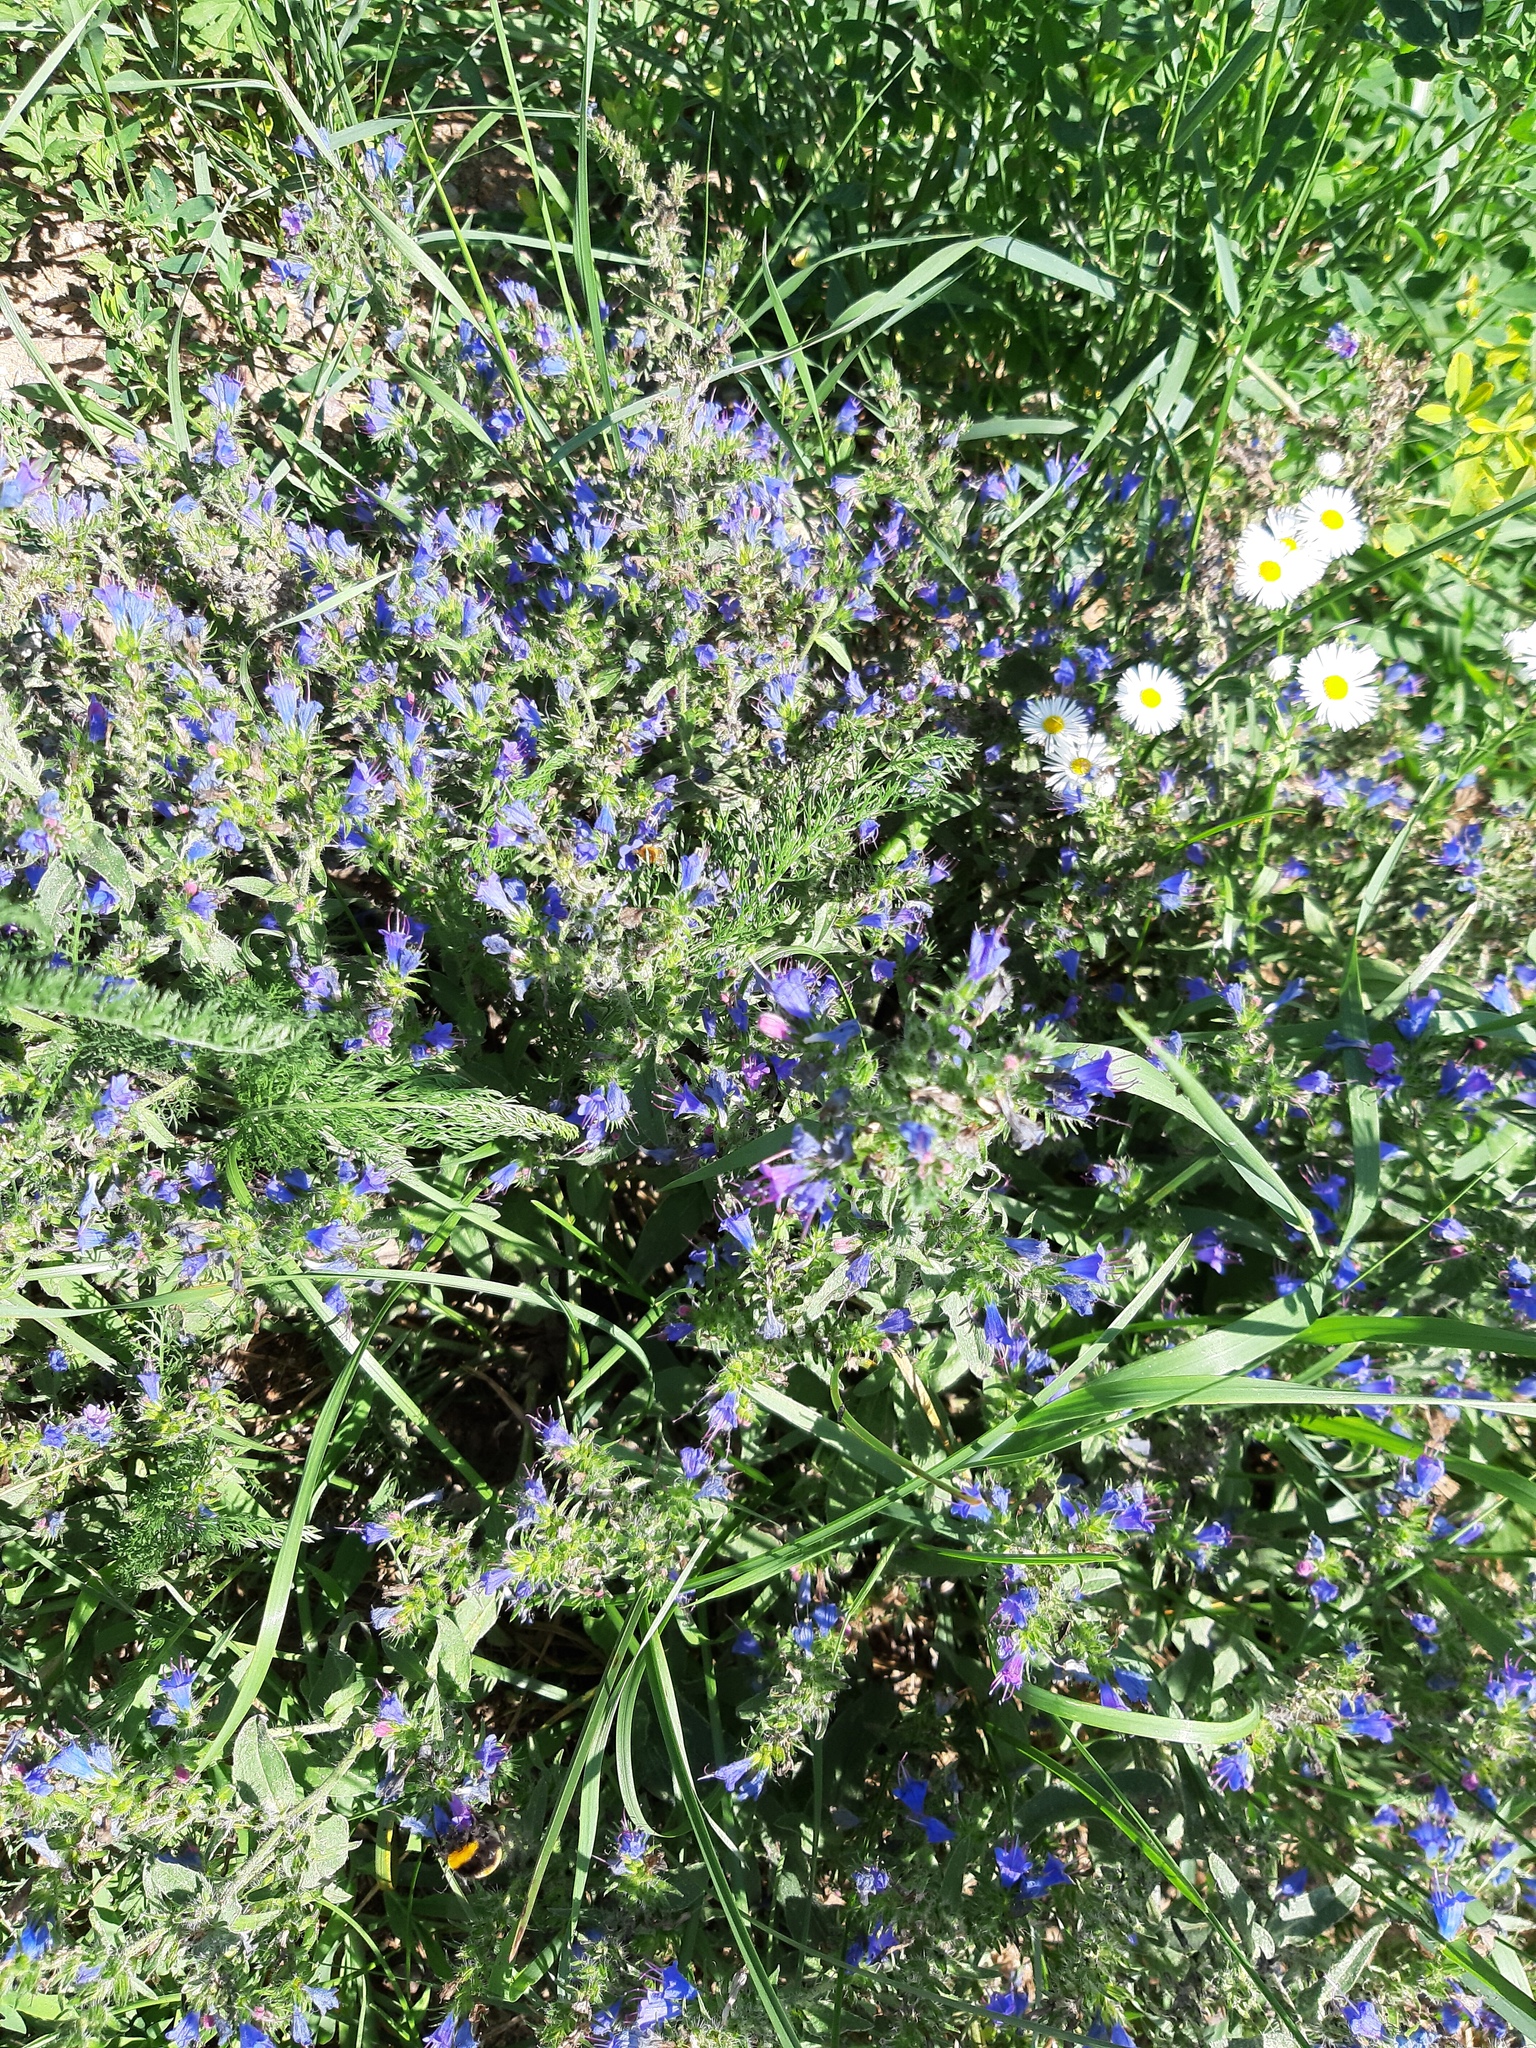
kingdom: Plantae
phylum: Tracheophyta
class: Magnoliopsida
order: Boraginales
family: Boraginaceae
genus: Echium
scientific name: Echium vulgare
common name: Common viper's bugloss
